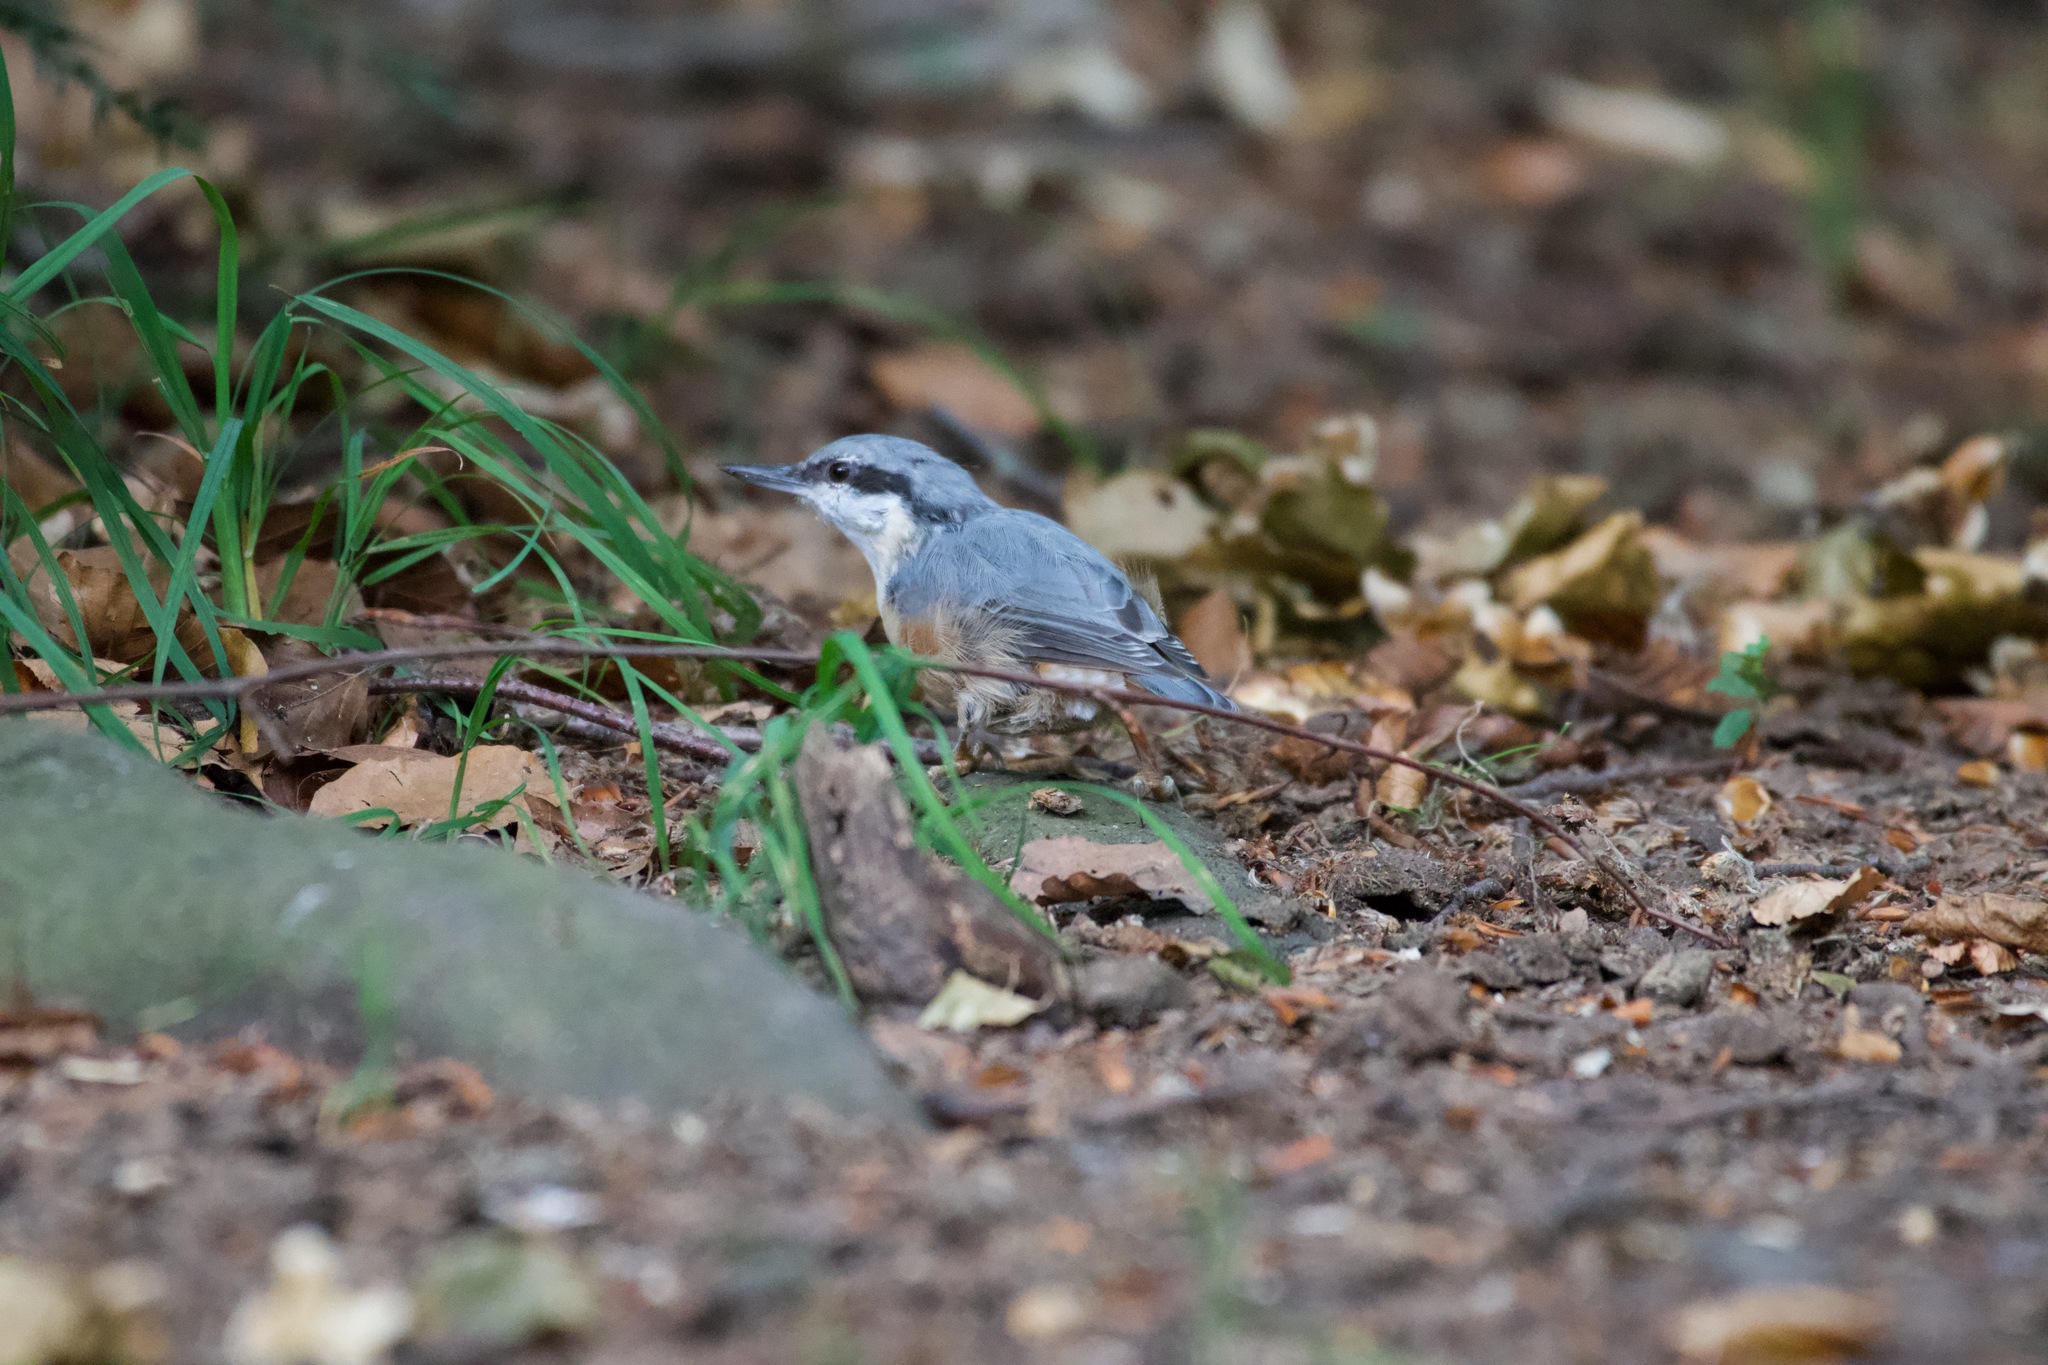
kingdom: Animalia
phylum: Chordata
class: Aves
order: Passeriformes
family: Sittidae
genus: Sitta
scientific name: Sitta europaea
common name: Eurasian nuthatch
